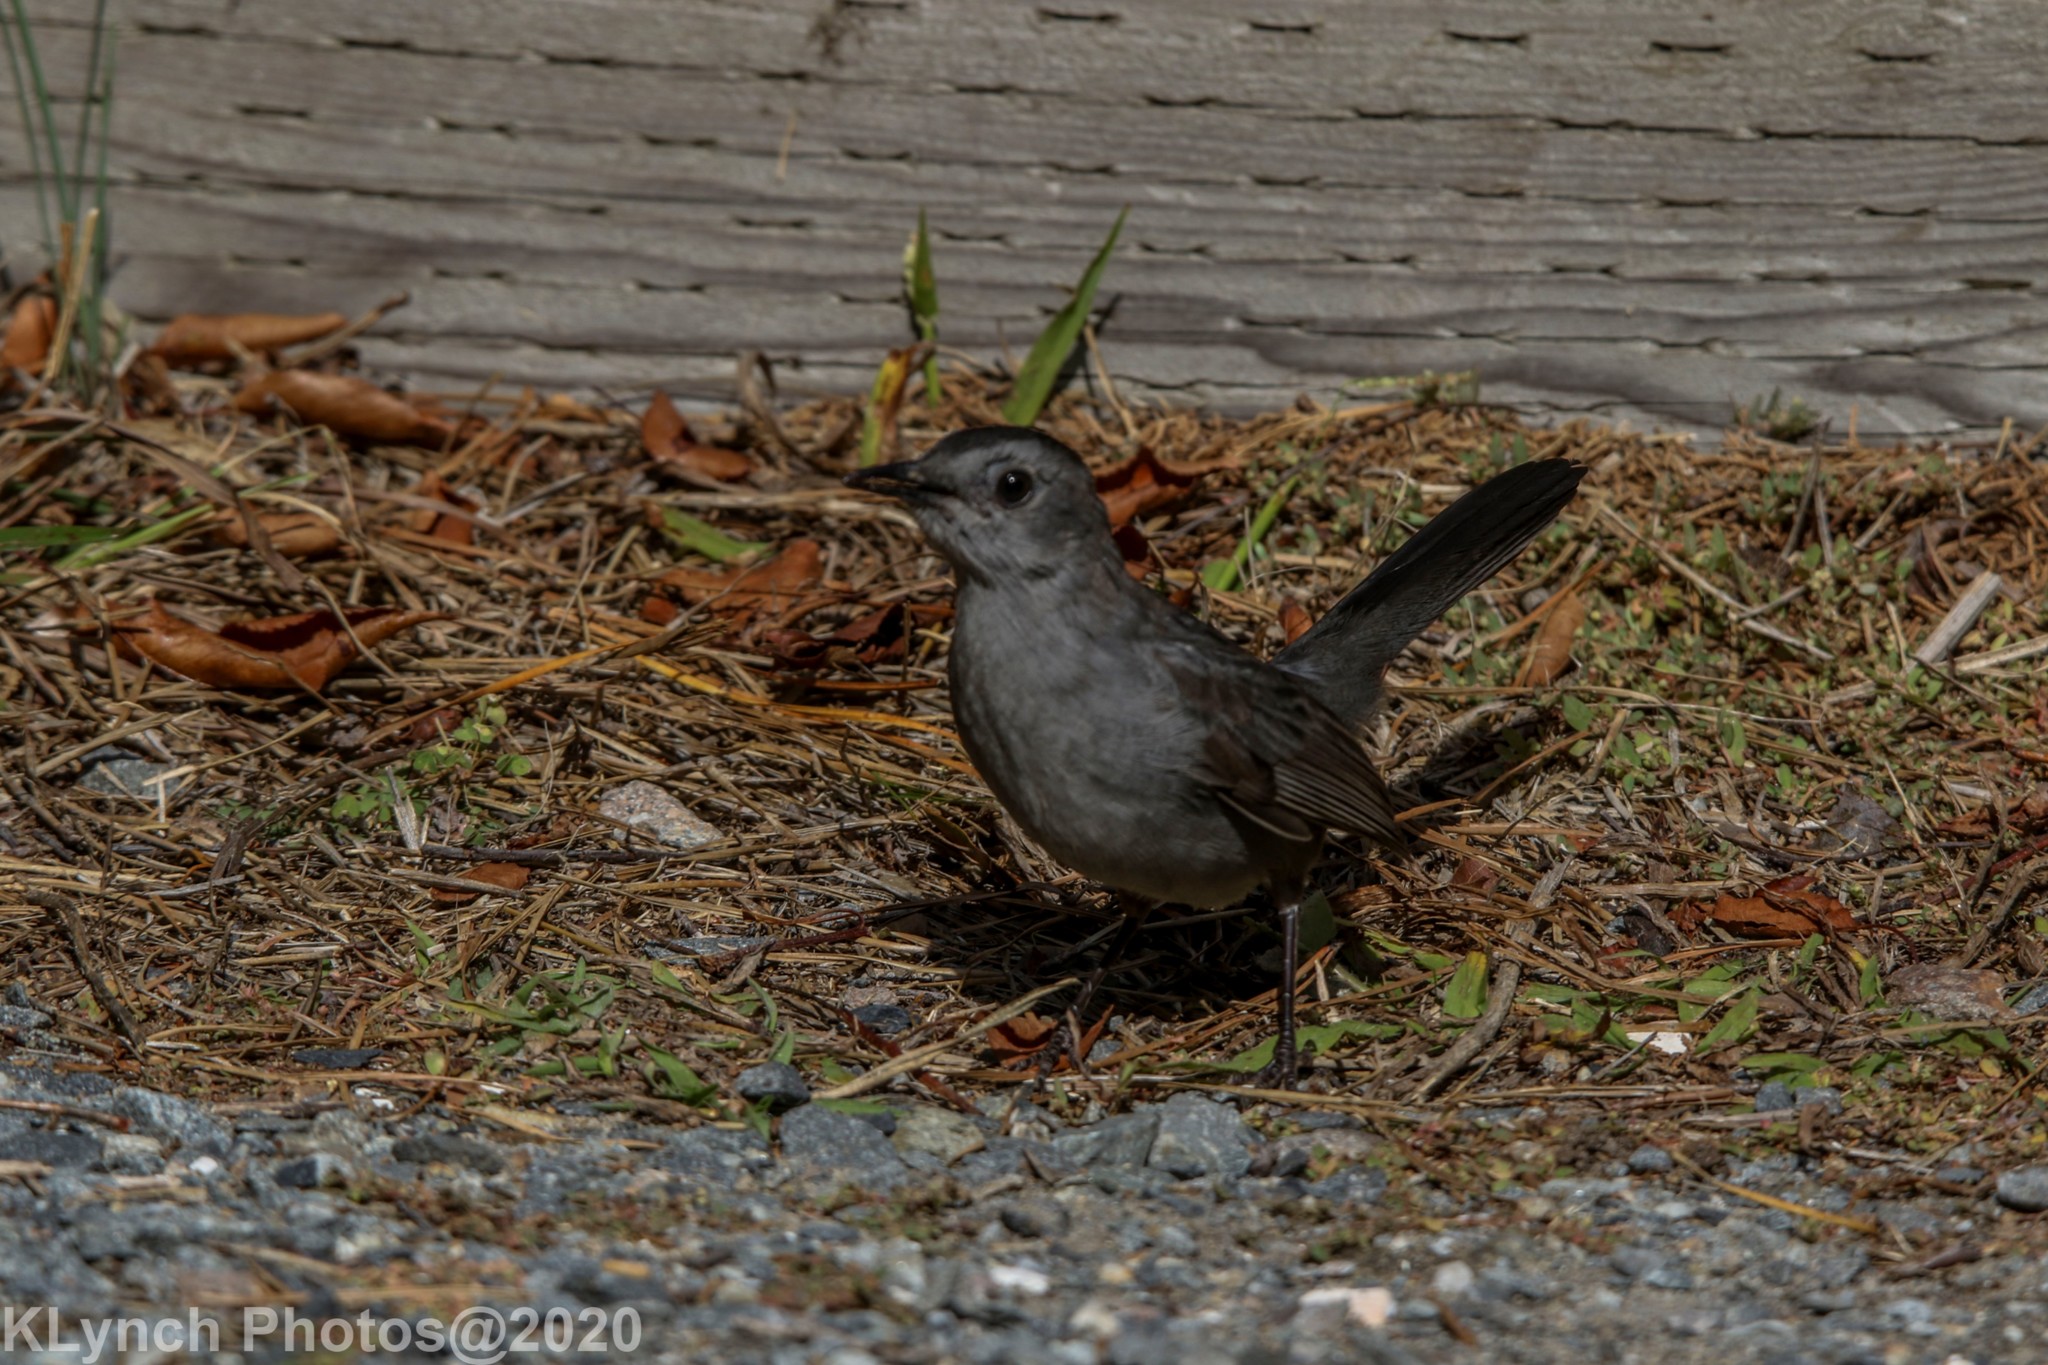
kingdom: Animalia
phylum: Chordata
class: Aves
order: Passeriformes
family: Mimidae
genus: Dumetella
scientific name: Dumetella carolinensis
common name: Gray catbird
